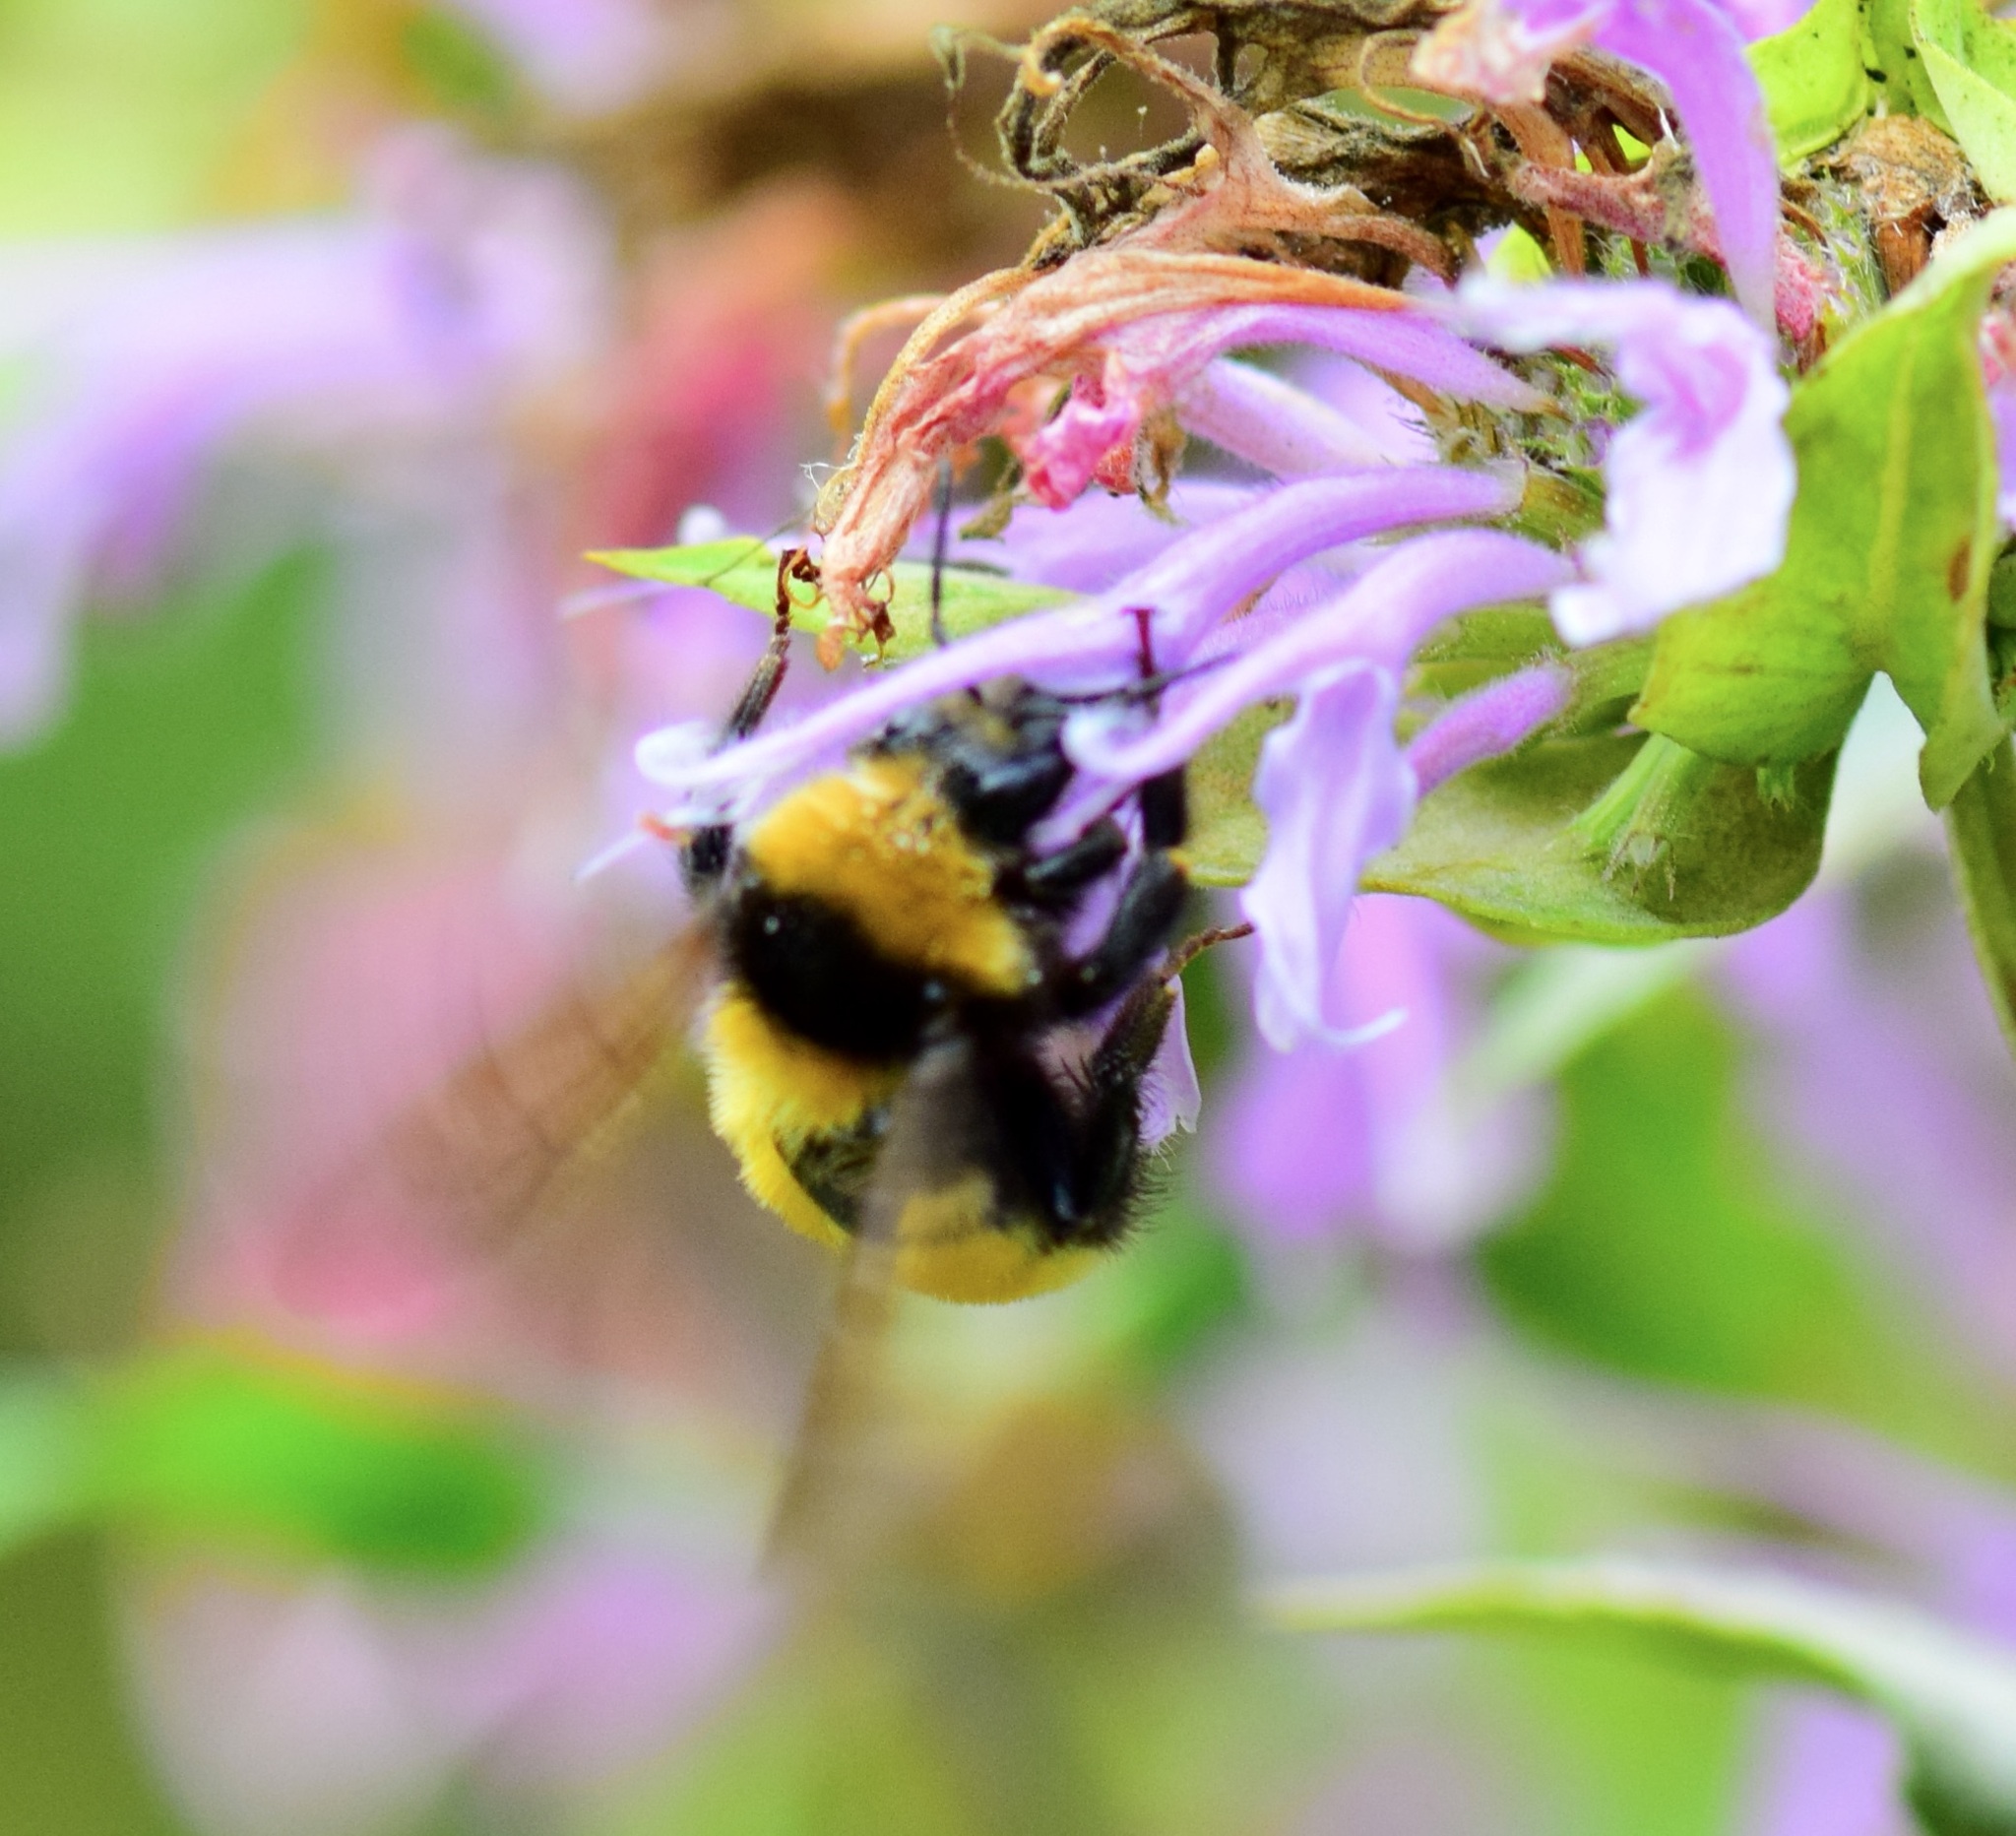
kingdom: Animalia
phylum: Arthropoda
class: Insecta
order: Hymenoptera
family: Apidae
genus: Bombus
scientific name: Bombus borealis
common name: Northern amber bumble bee
